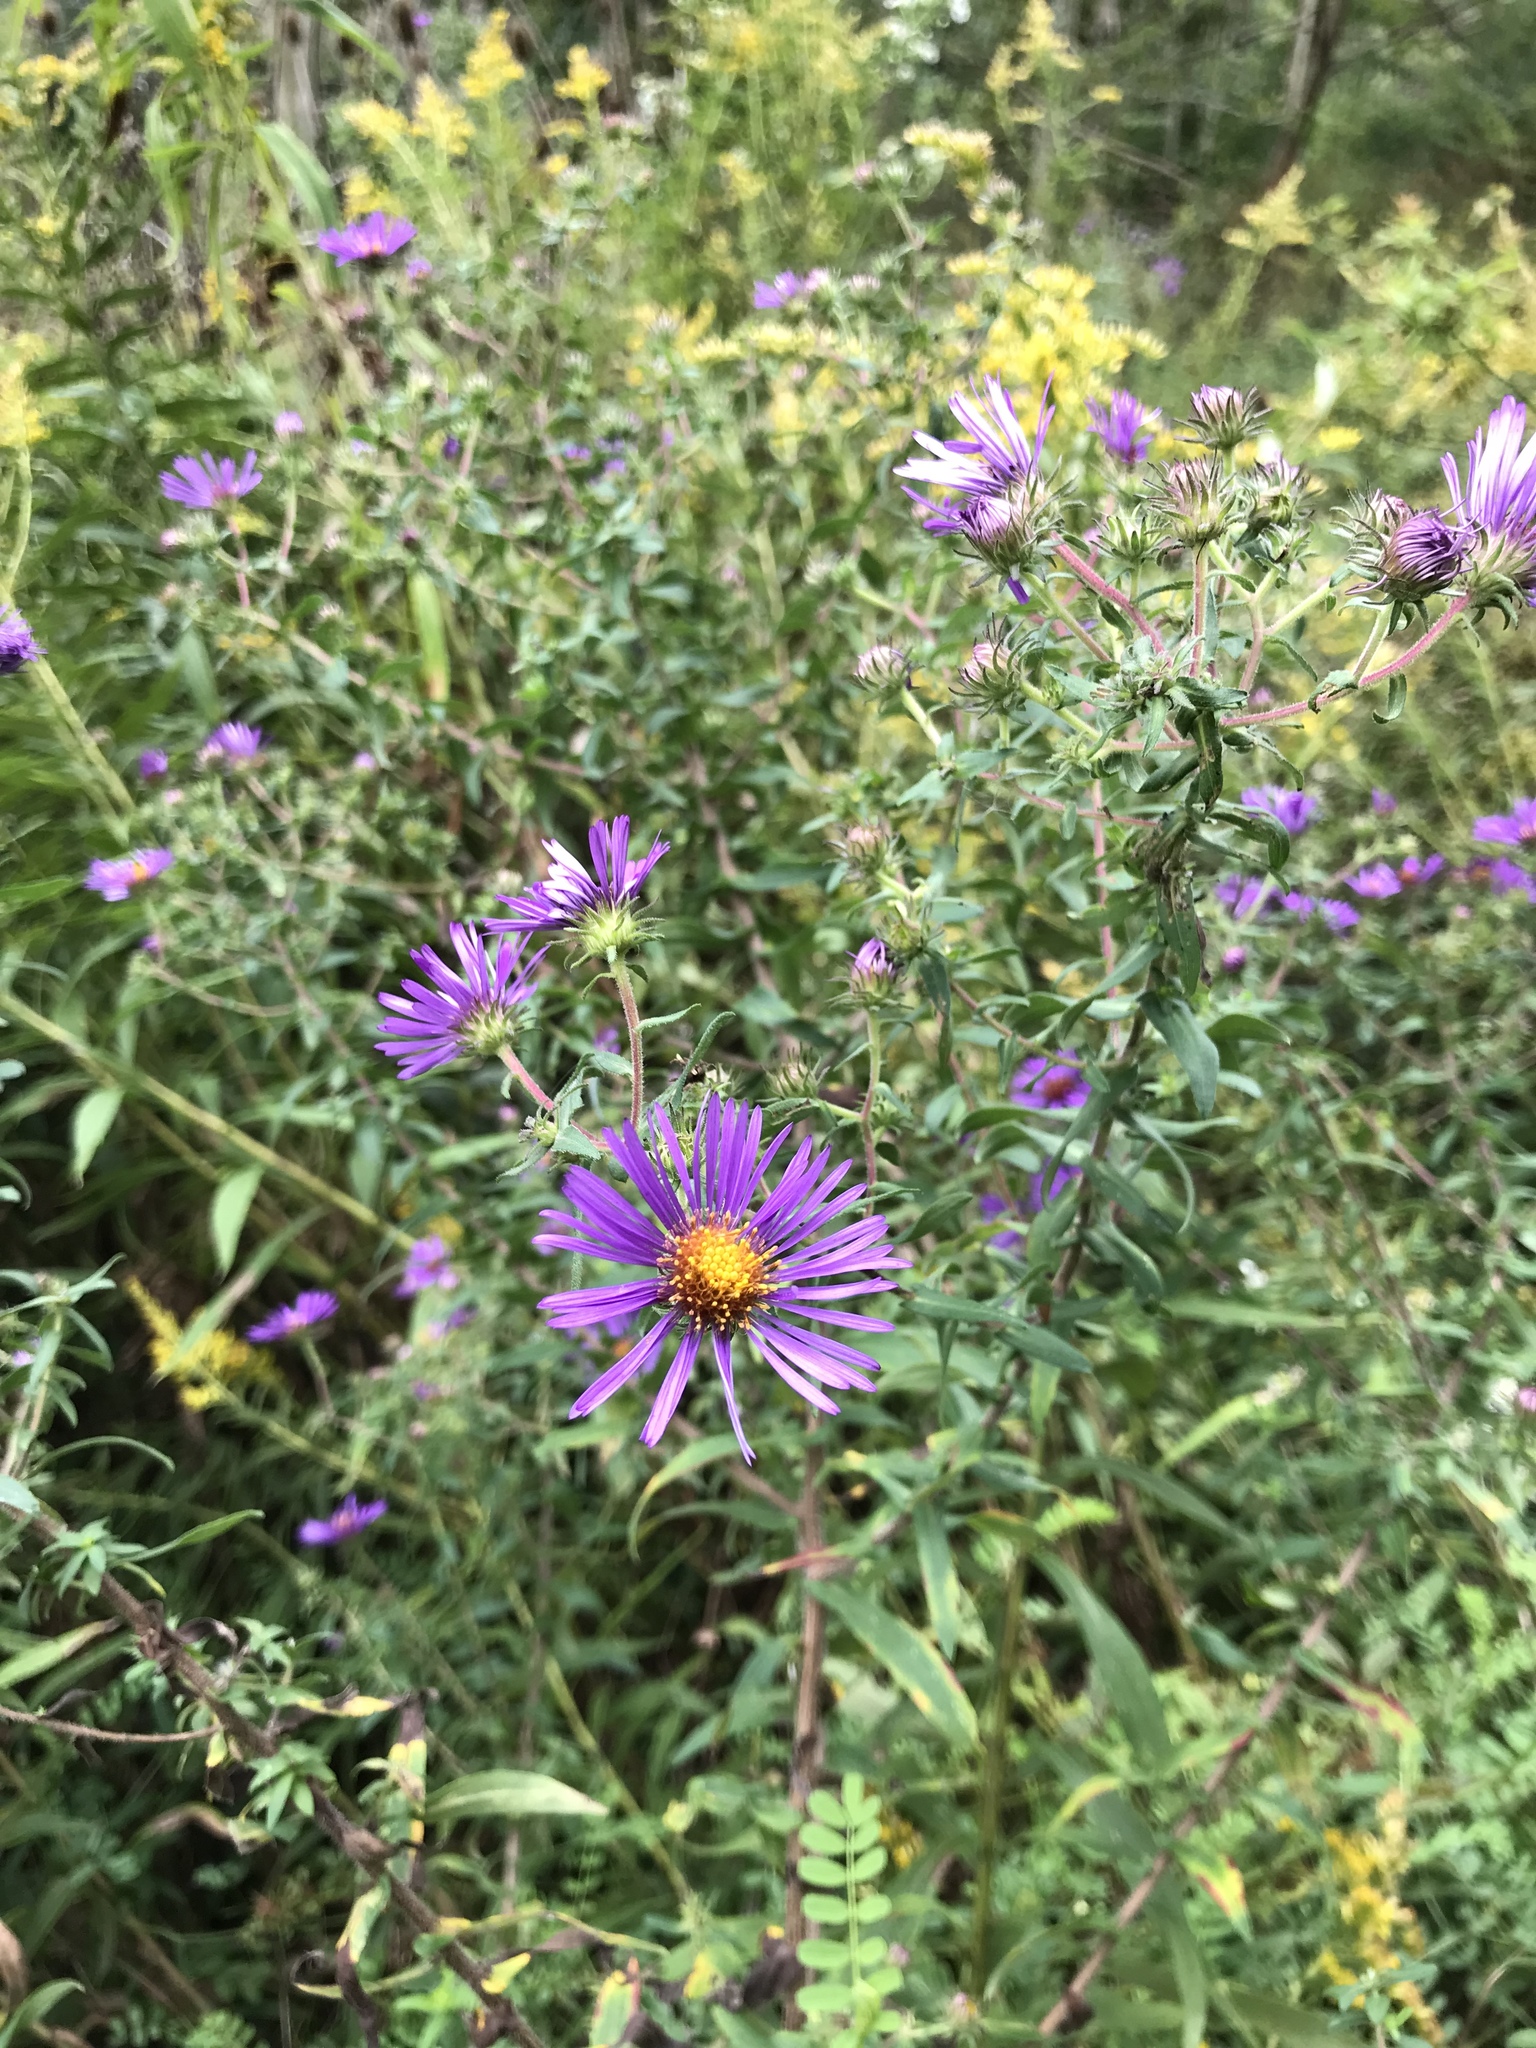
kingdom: Plantae
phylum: Tracheophyta
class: Magnoliopsida
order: Asterales
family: Asteraceae
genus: Symphyotrichum
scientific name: Symphyotrichum novae-angliae
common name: Michaelmas daisy
